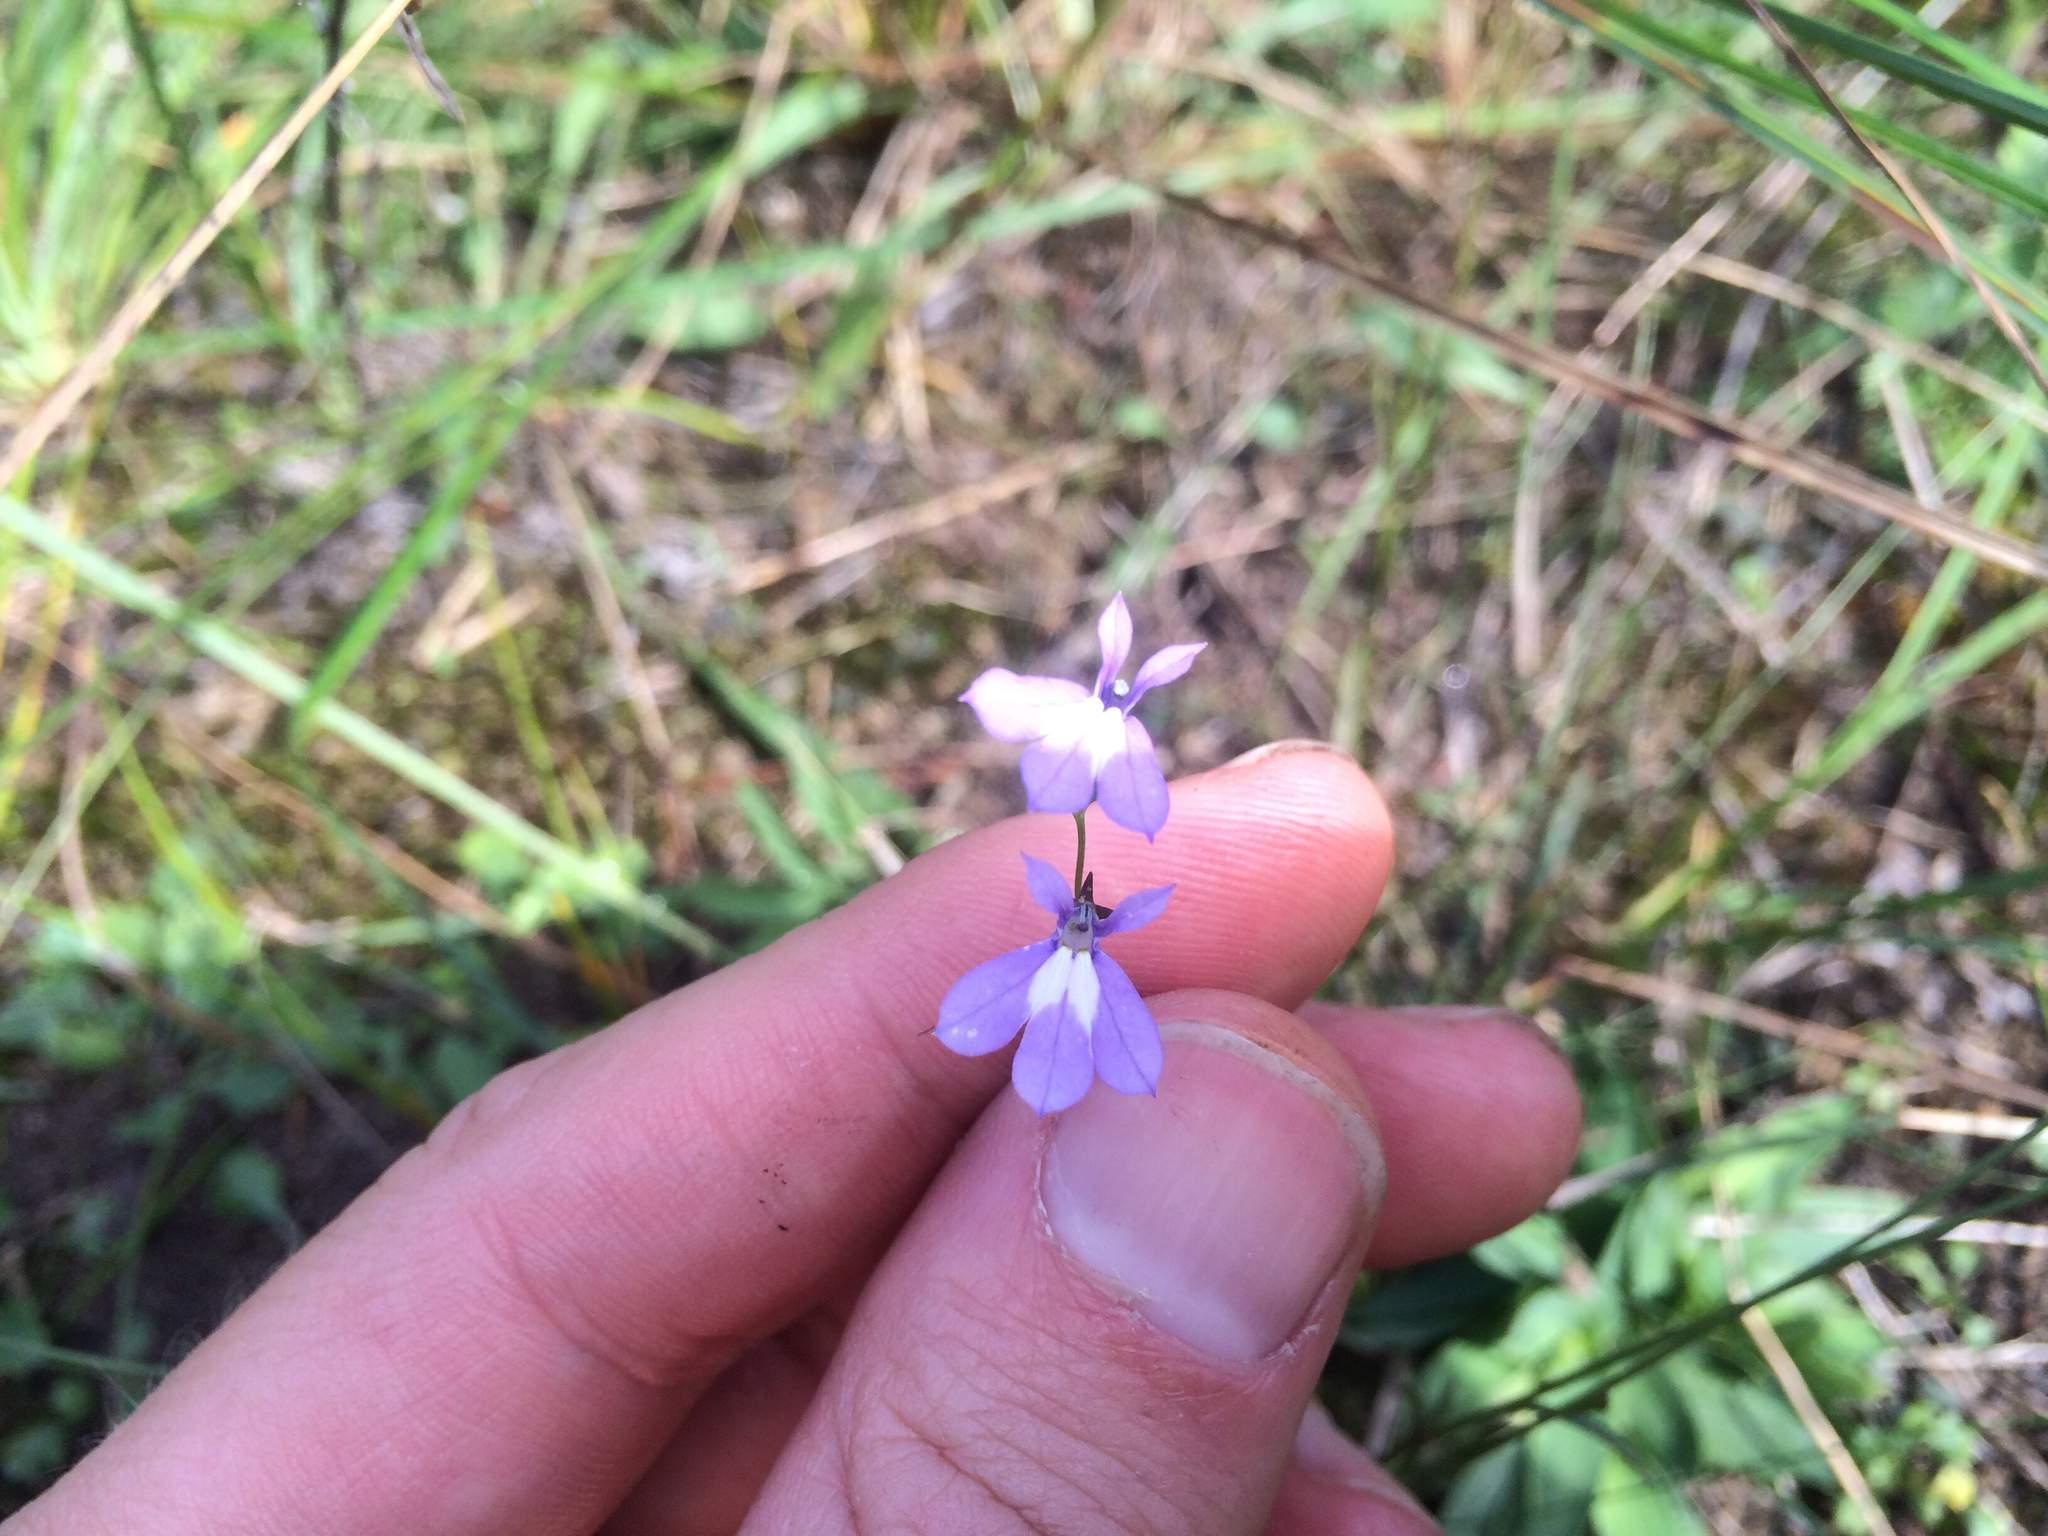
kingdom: Plantae
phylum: Tracheophyta
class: Magnoliopsida
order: Asterales
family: Campanulaceae
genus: Lobelia
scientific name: Lobelia kalmii
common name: Kalm's lobelia
